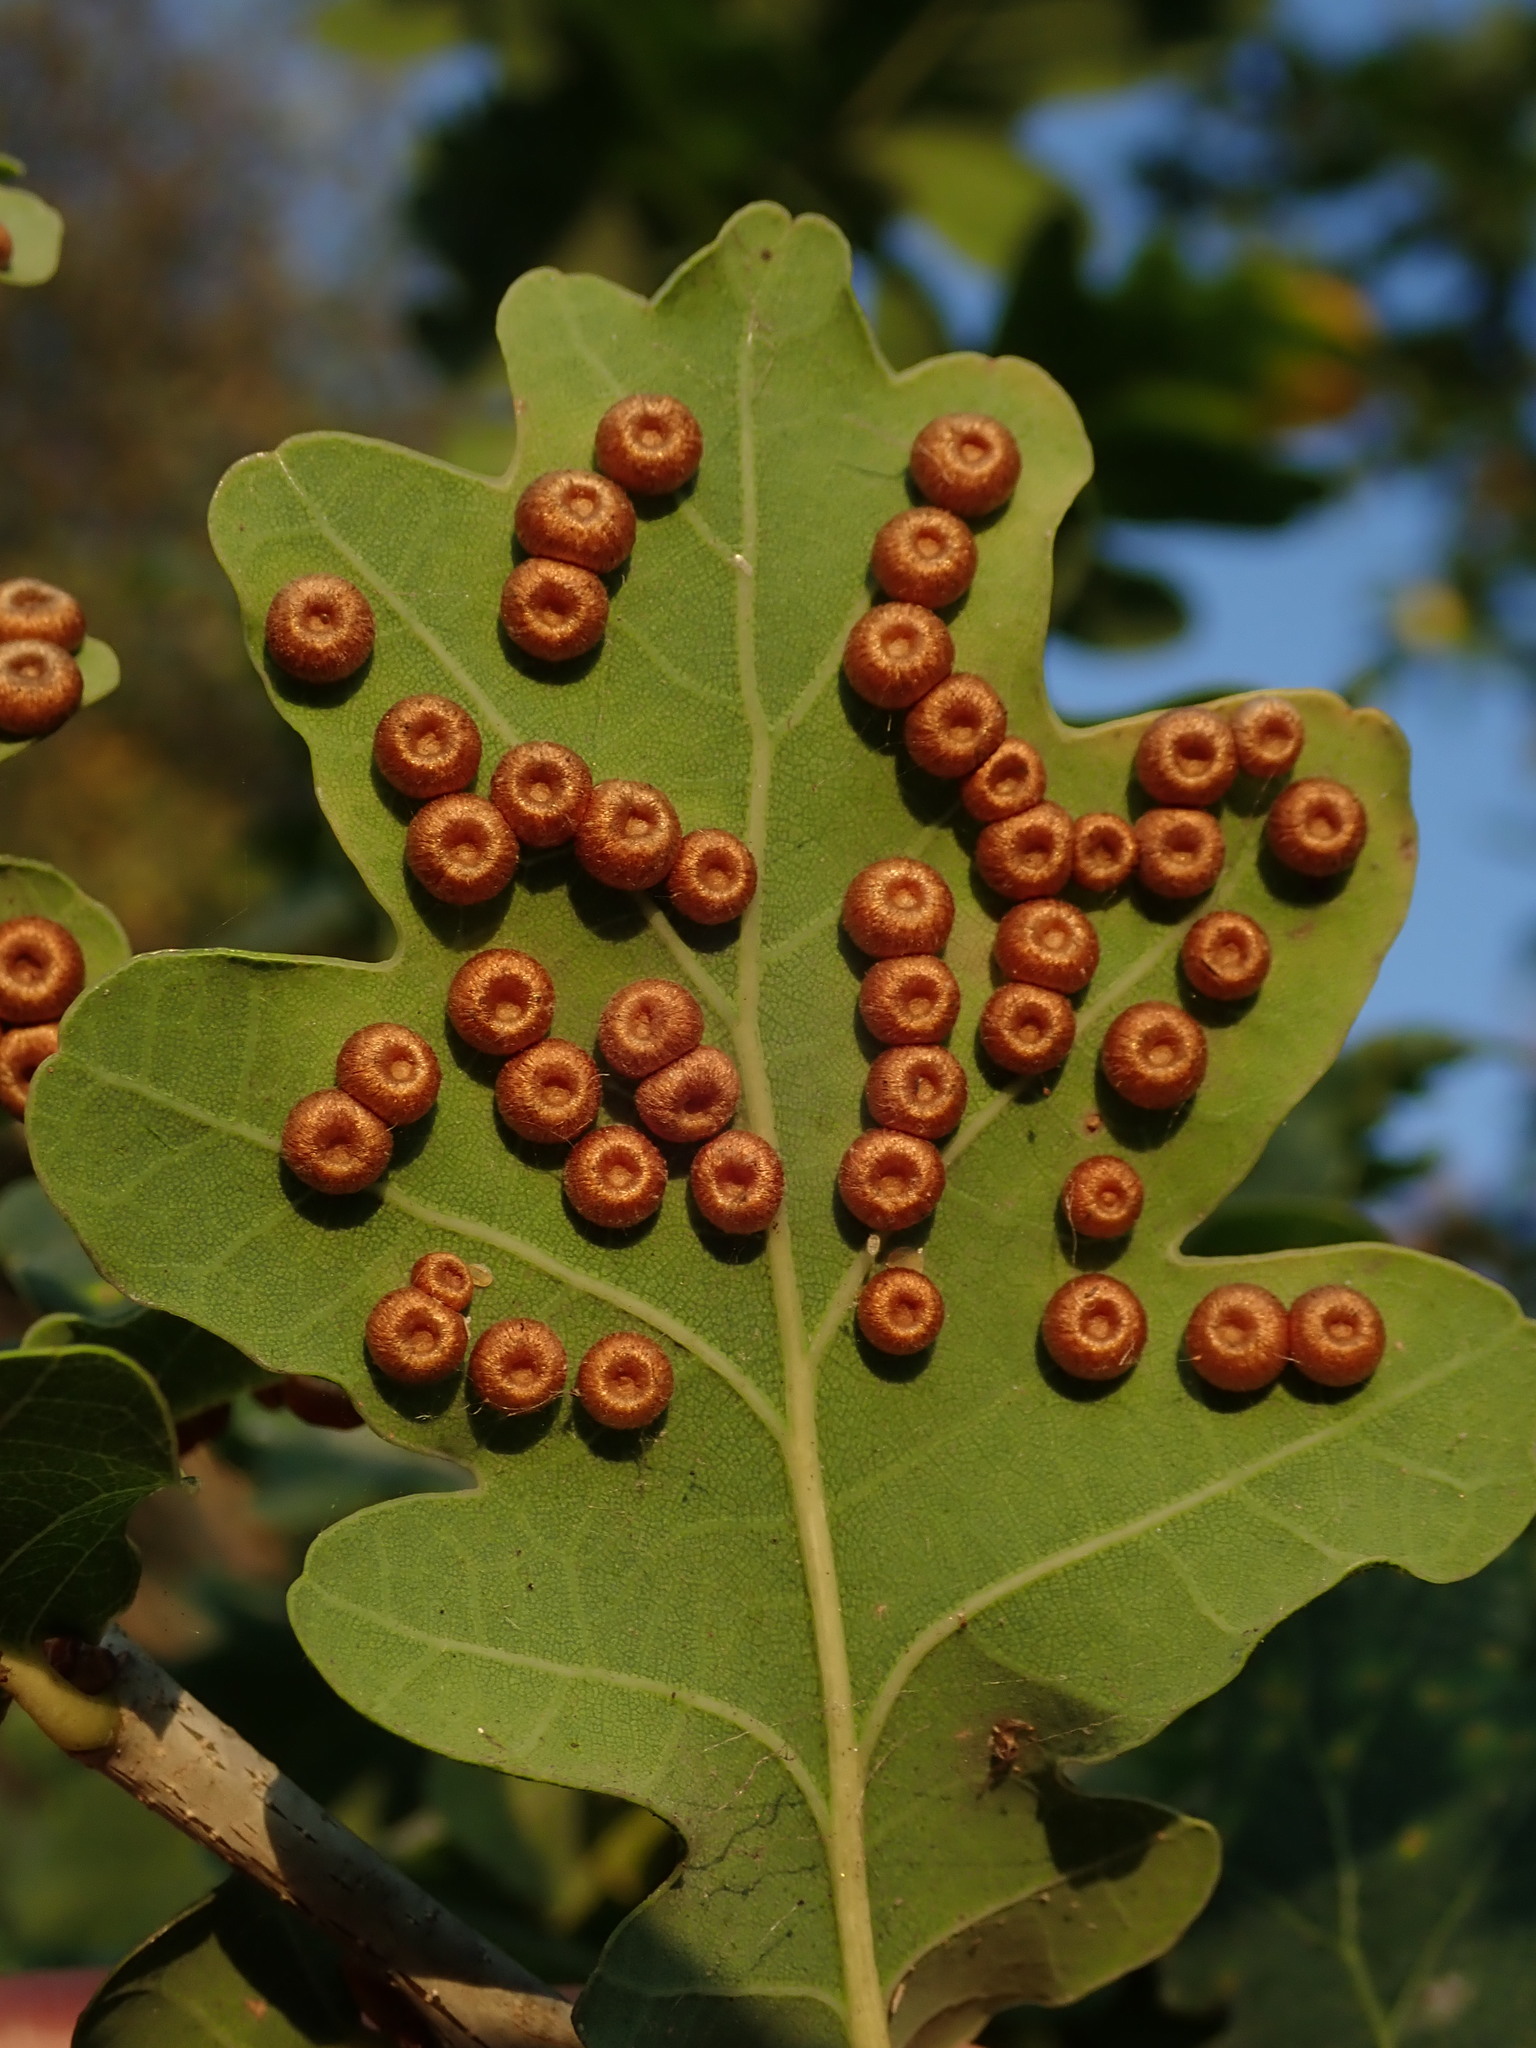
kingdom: Animalia
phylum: Arthropoda
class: Insecta
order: Hymenoptera
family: Cynipidae
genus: Neuroterus
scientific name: Neuroterus numismalis
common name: Silk-button spangle gall
